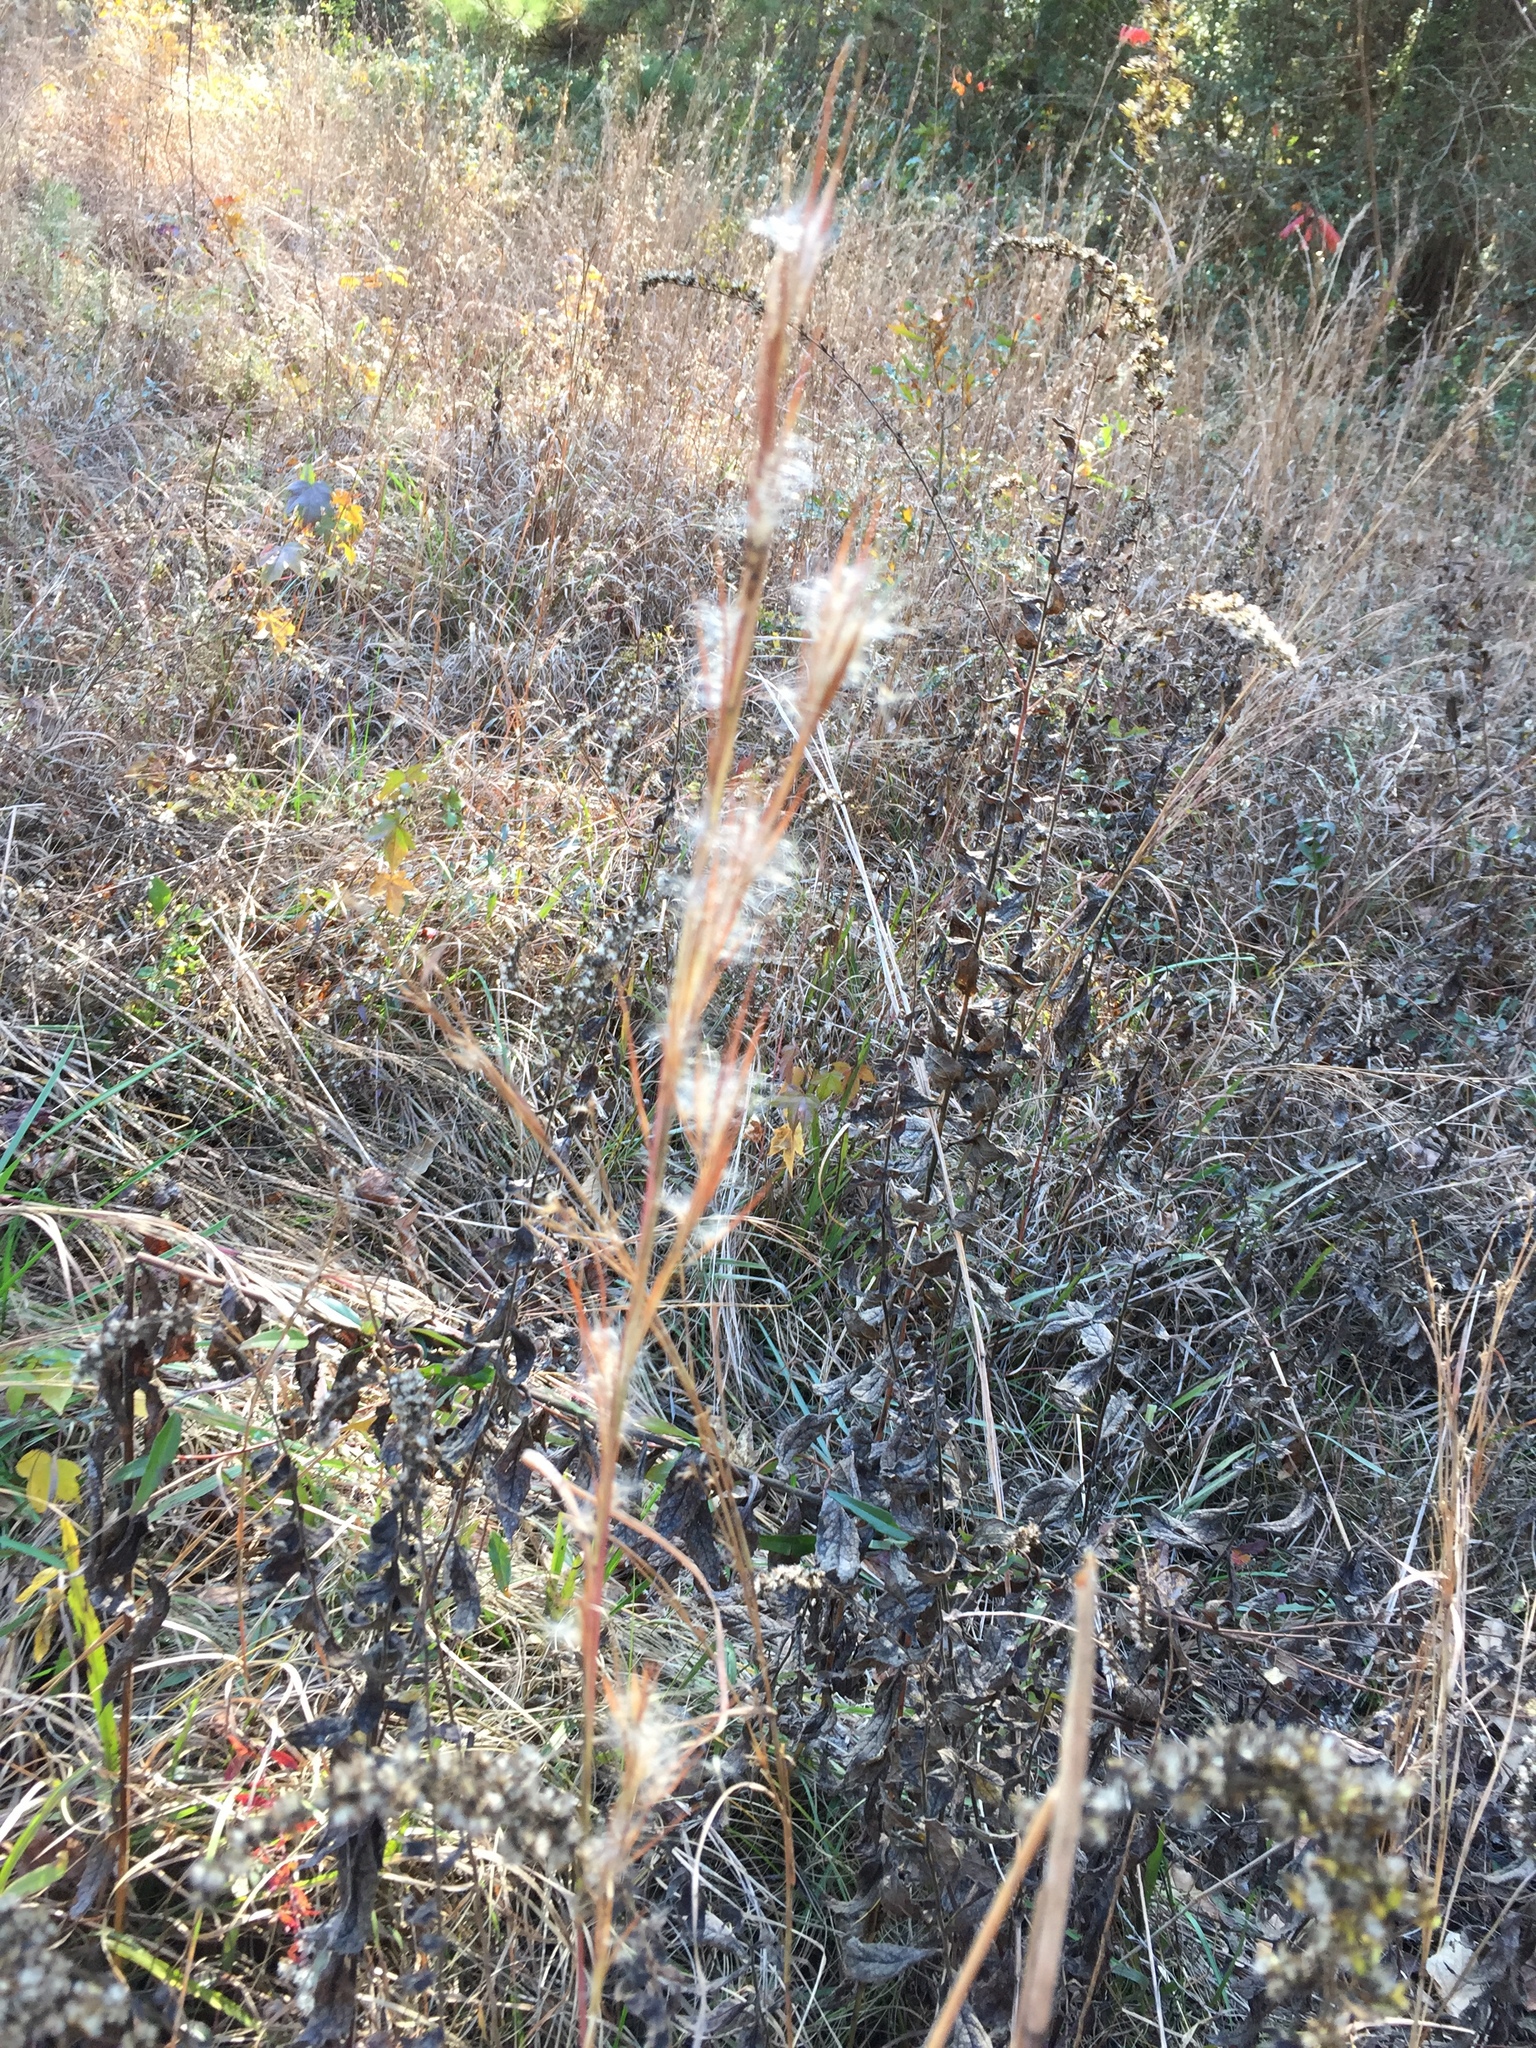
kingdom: Plantae
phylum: Tracheophyta
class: Liliopsida
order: Poales
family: Poaceae
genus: Andropogon
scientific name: Andropogon virginicus
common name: Broomsedge bluestem
